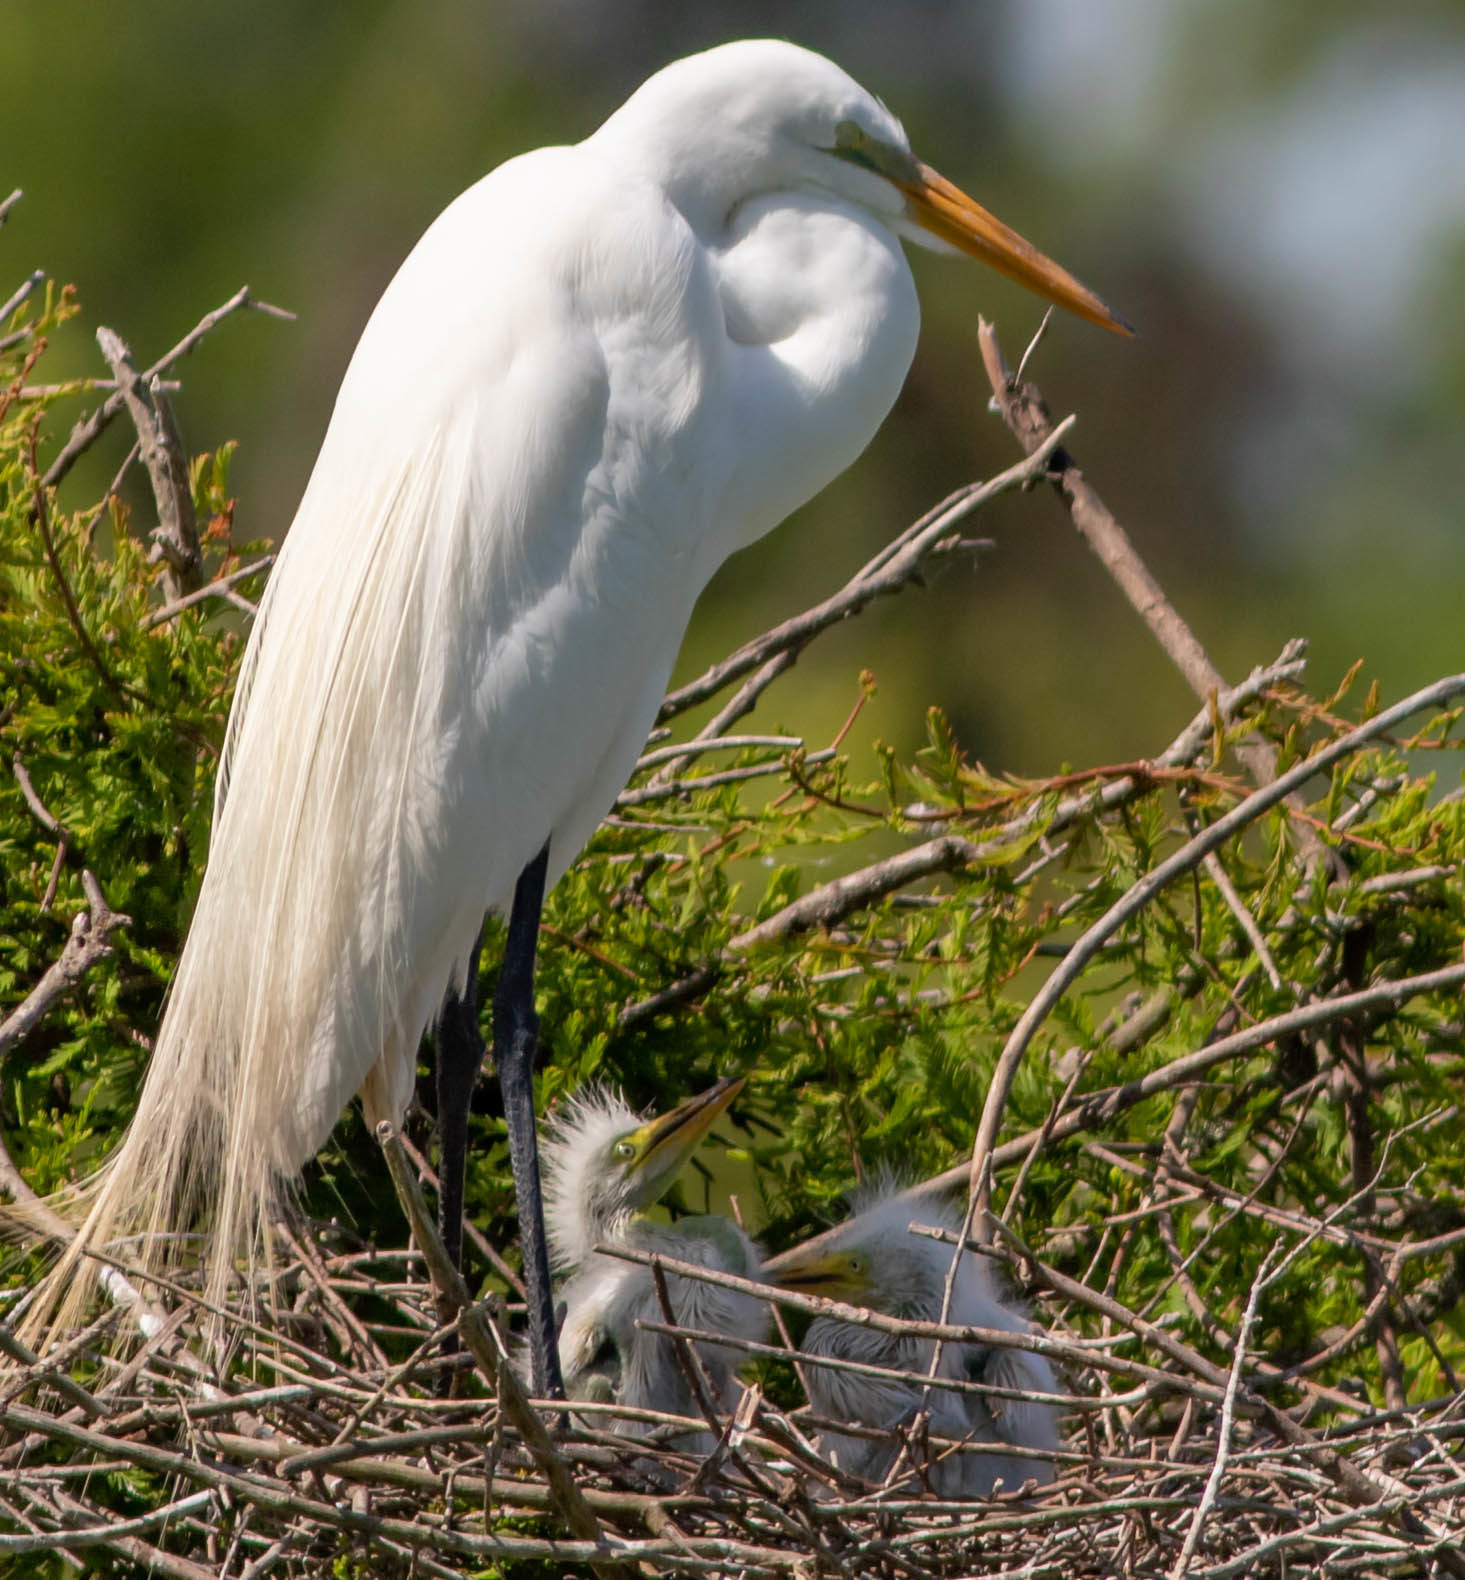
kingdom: Animalia
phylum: Chordata
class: Aves
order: Pelecaniformes
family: Ardeidae
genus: Ardea
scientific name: Ardea alba
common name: Great egret
